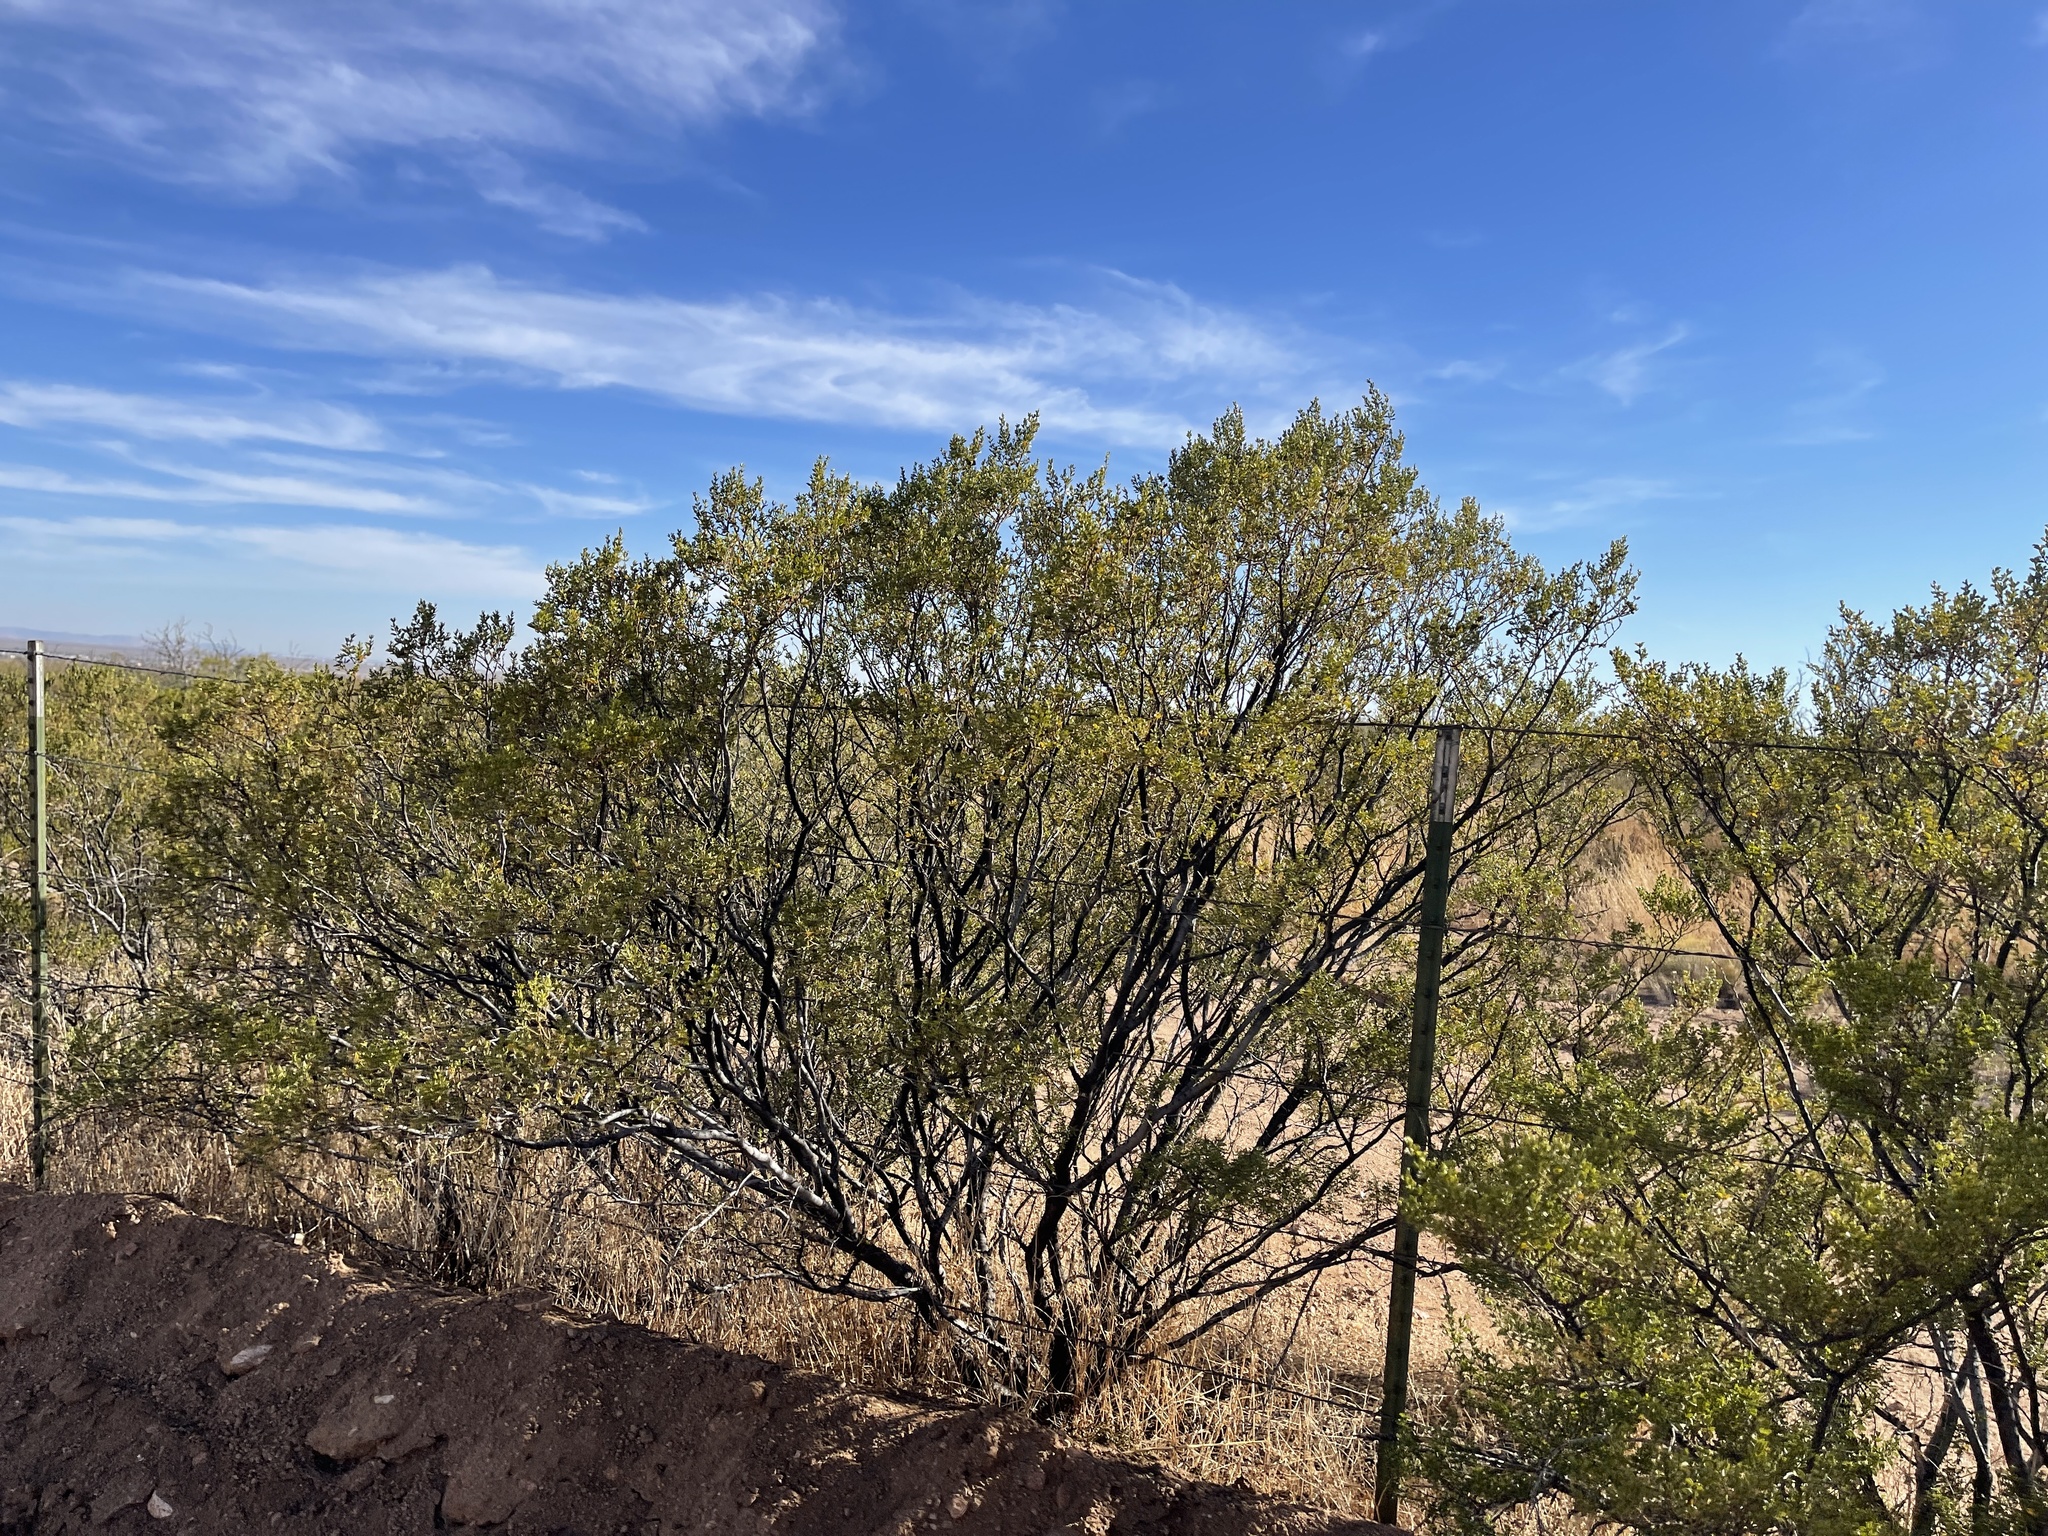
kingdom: Plantae
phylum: Tracheophyta
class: Magnoliopsida
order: Zygophyllales
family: Zygophyllaceae
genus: Larrea
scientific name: Larrea tridentata
